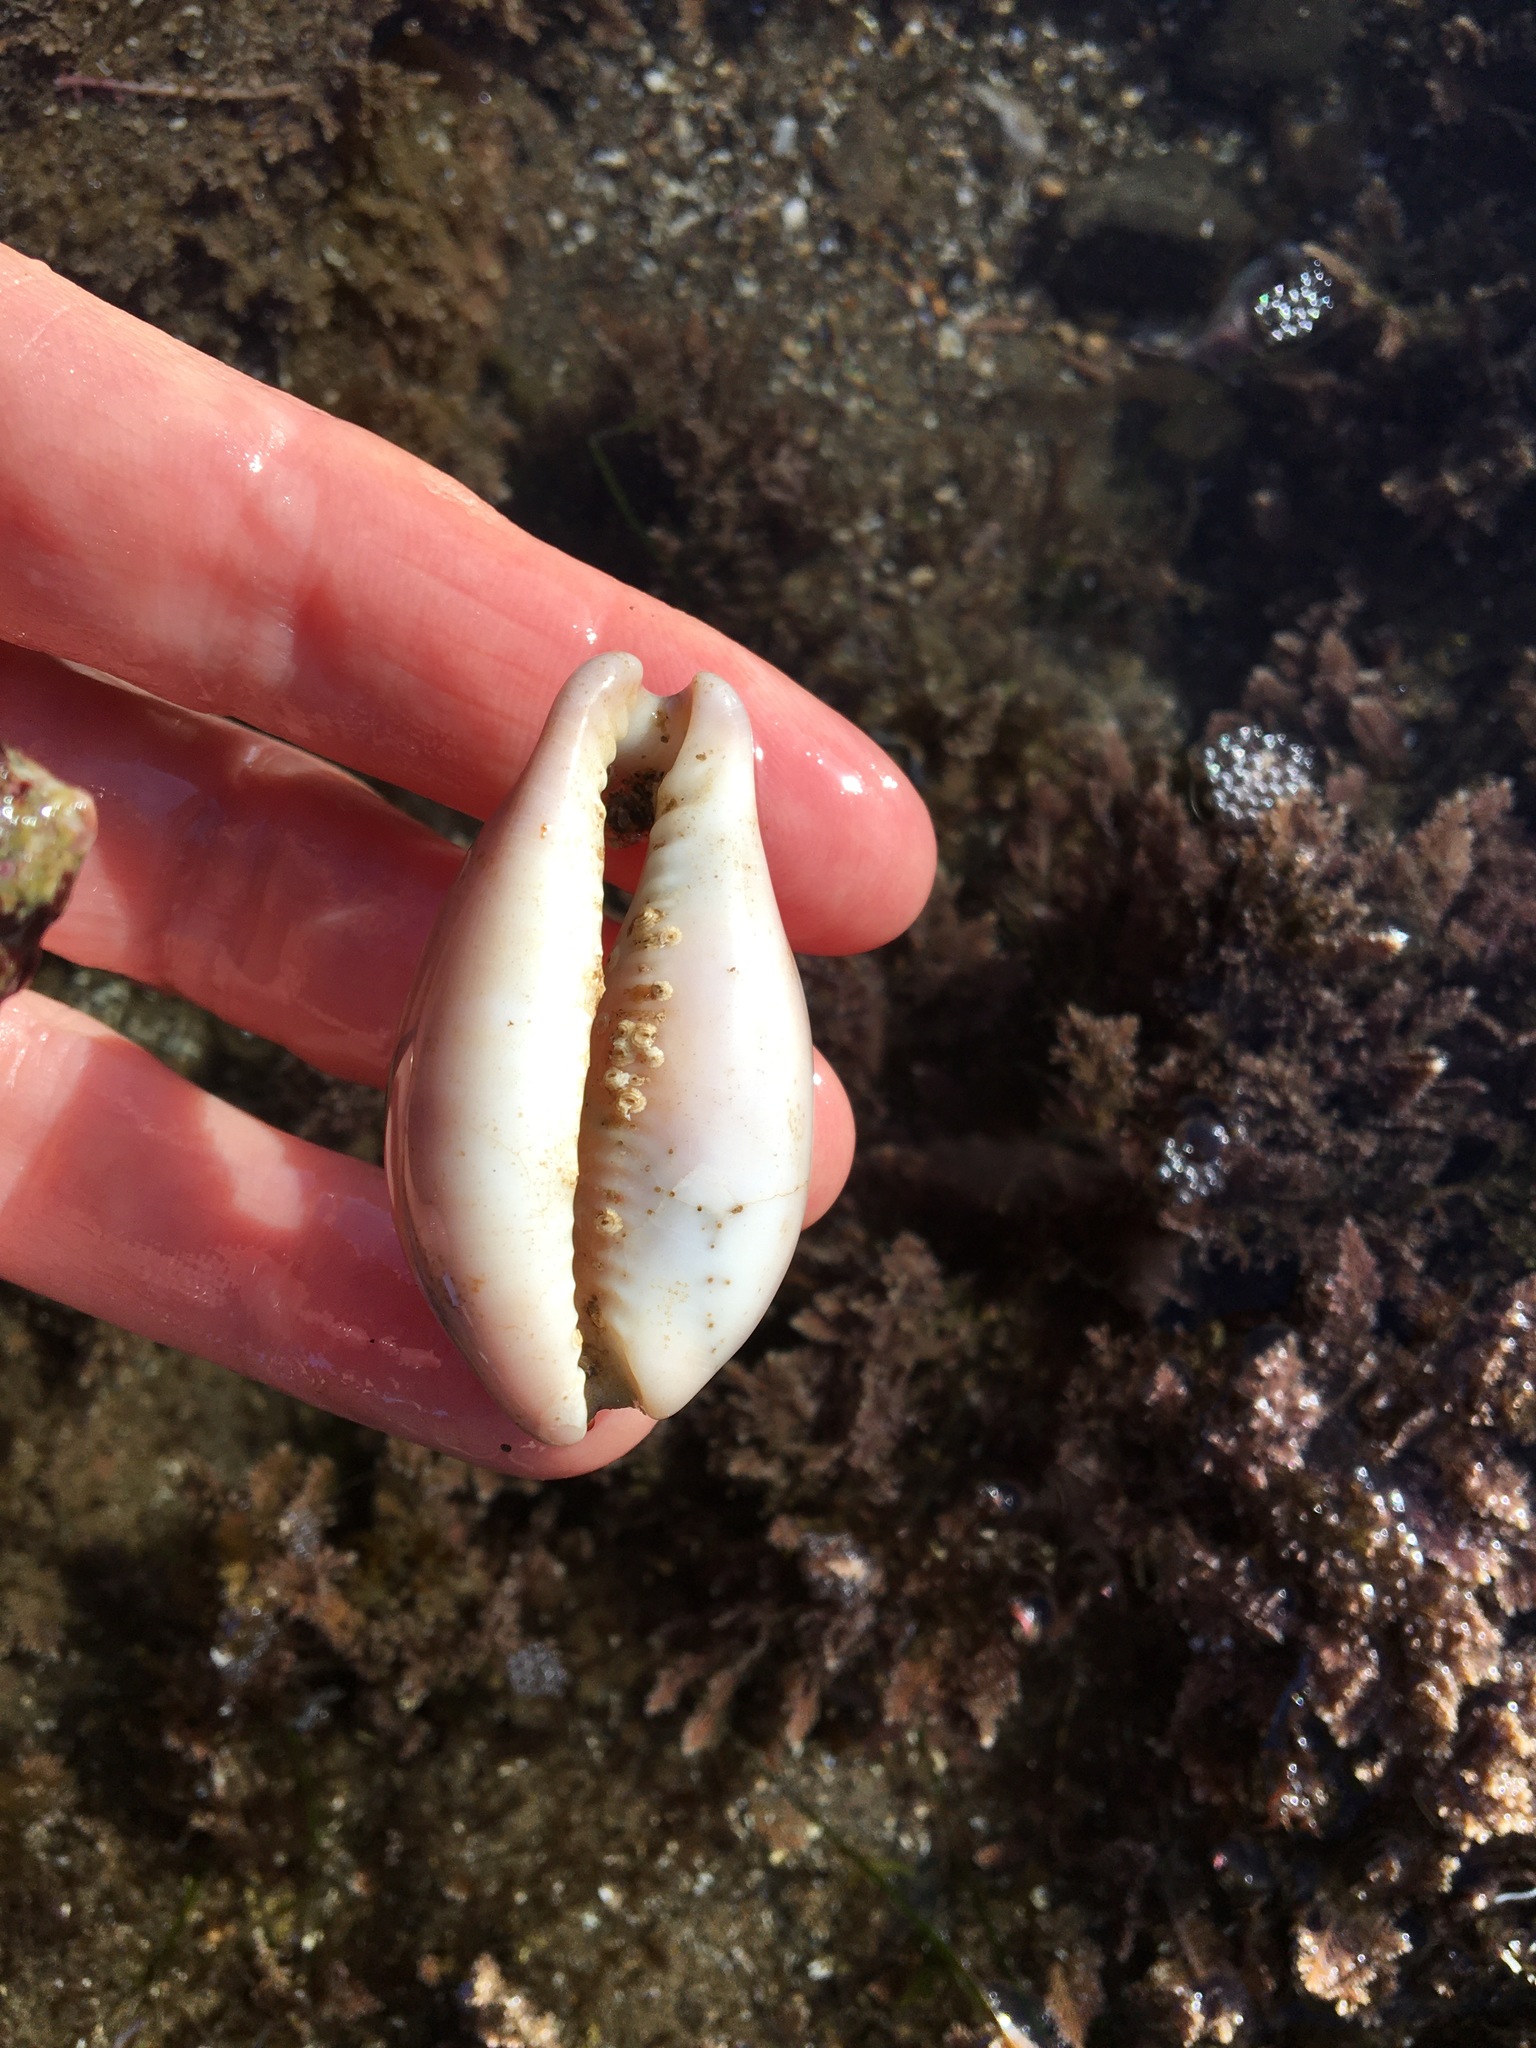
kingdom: Animalia
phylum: Mollusca
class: Gastropoda
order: Littorinimorpha
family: Cypraeidae
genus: Neobernaya
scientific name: Neobernaya spadicea
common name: Chestnut cowrie
